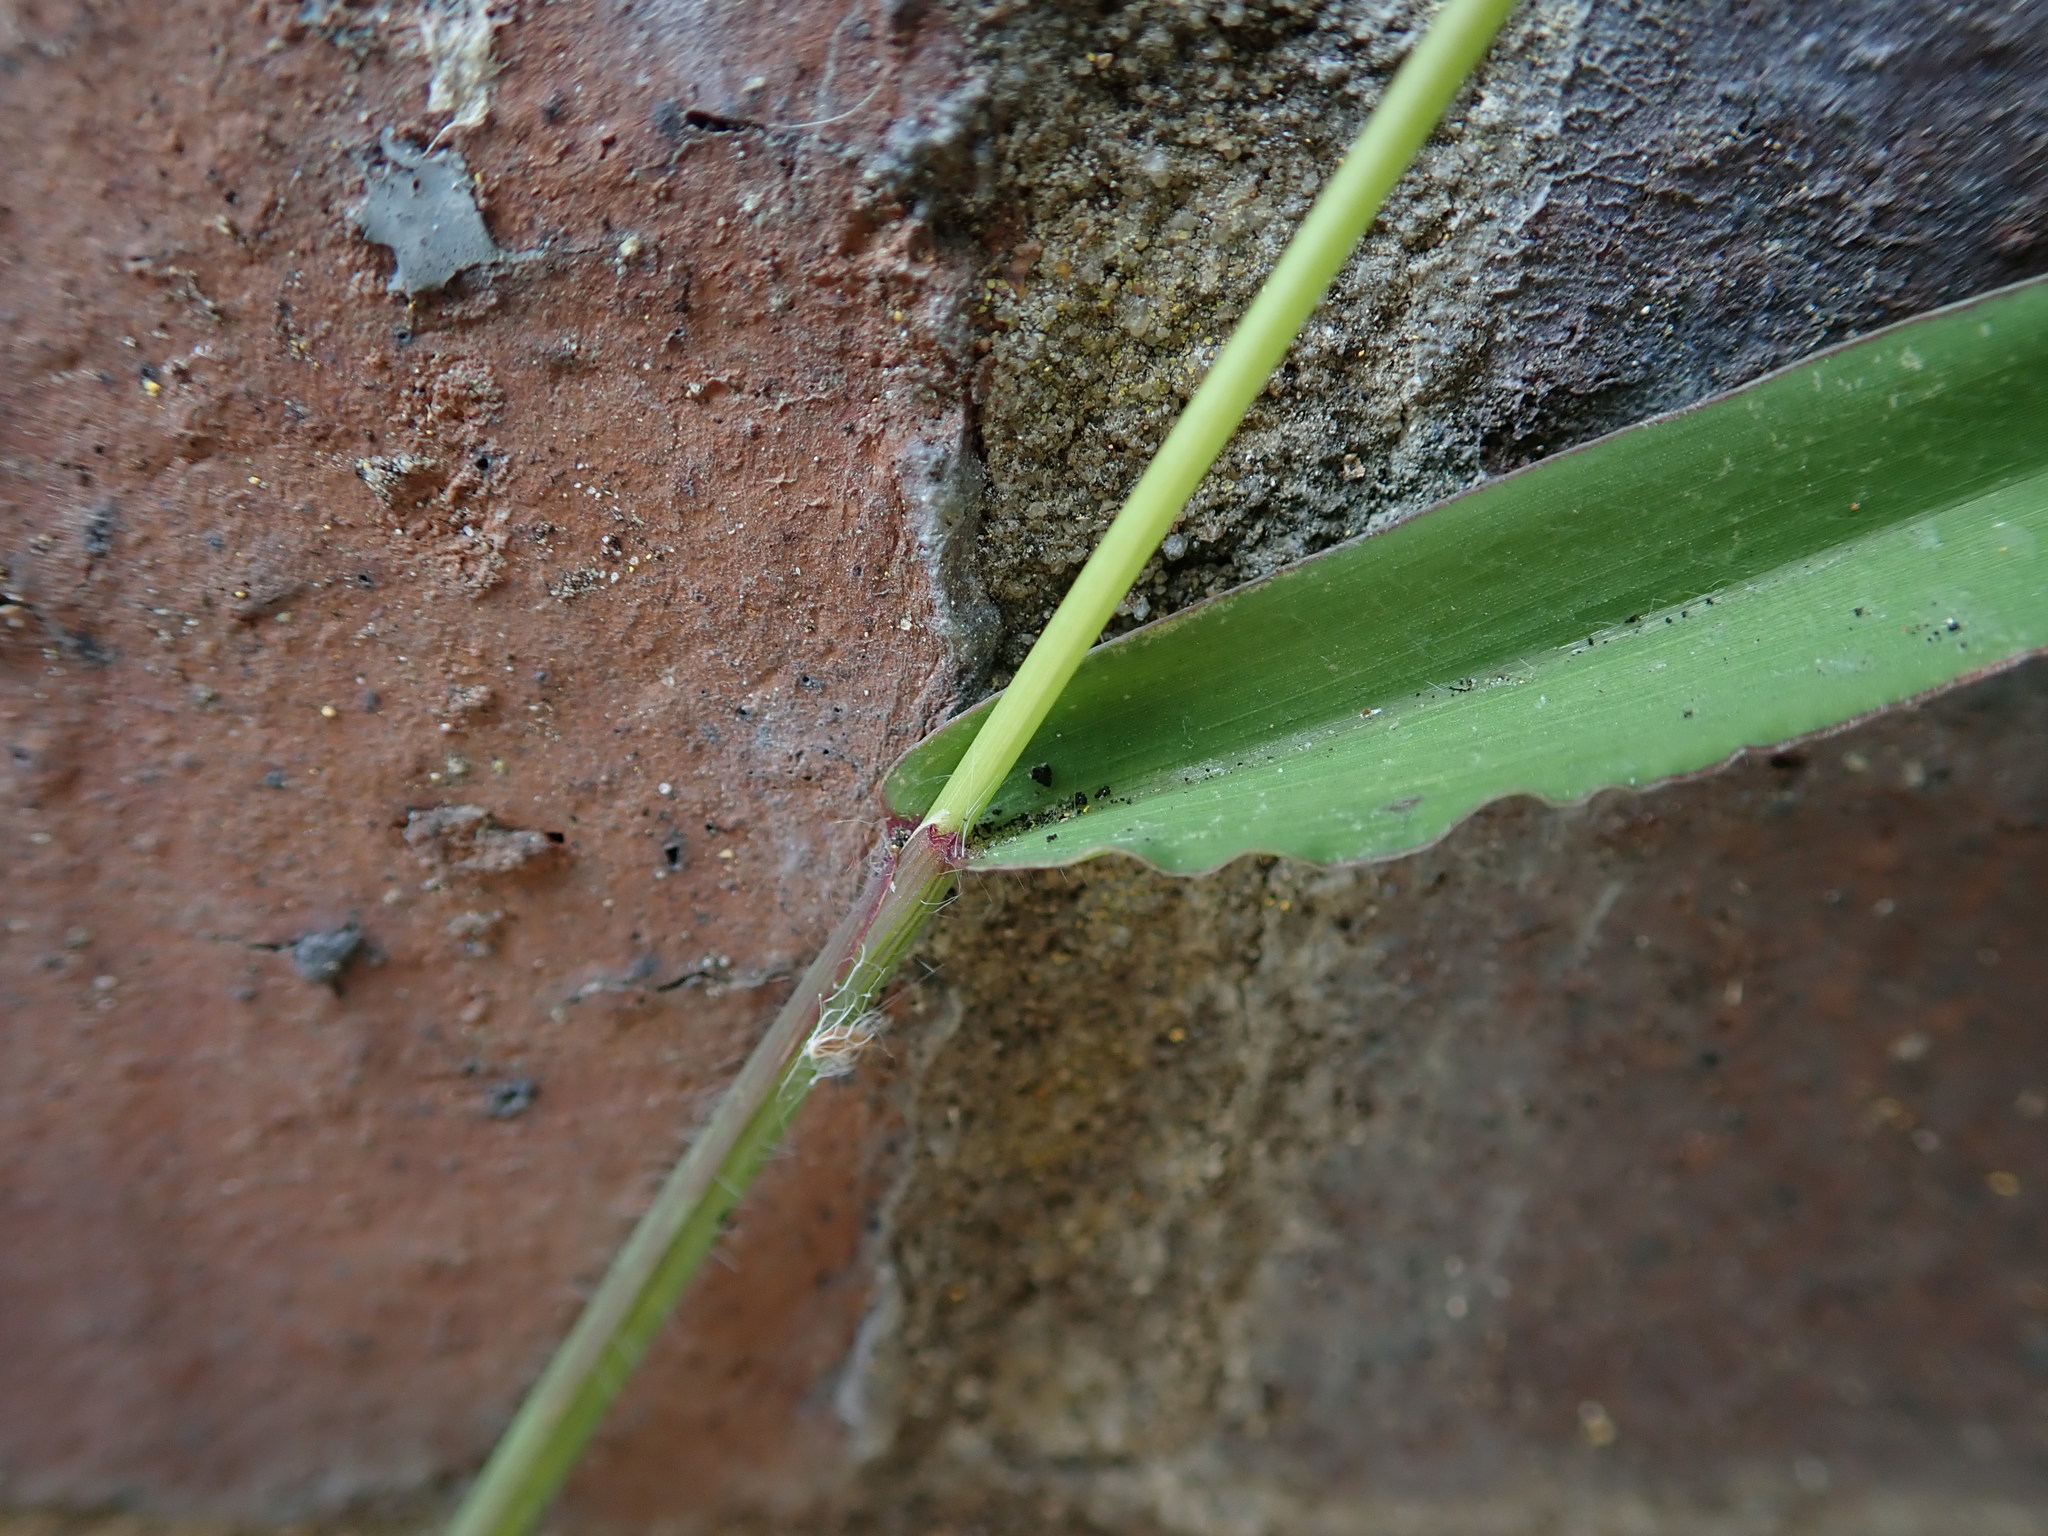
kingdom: Plantae
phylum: Tracheophyta
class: Liliopsida
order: Poales
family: Poaceae
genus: Digitaria
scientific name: Digitaria sanguinalis
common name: Hairy crabgrass
